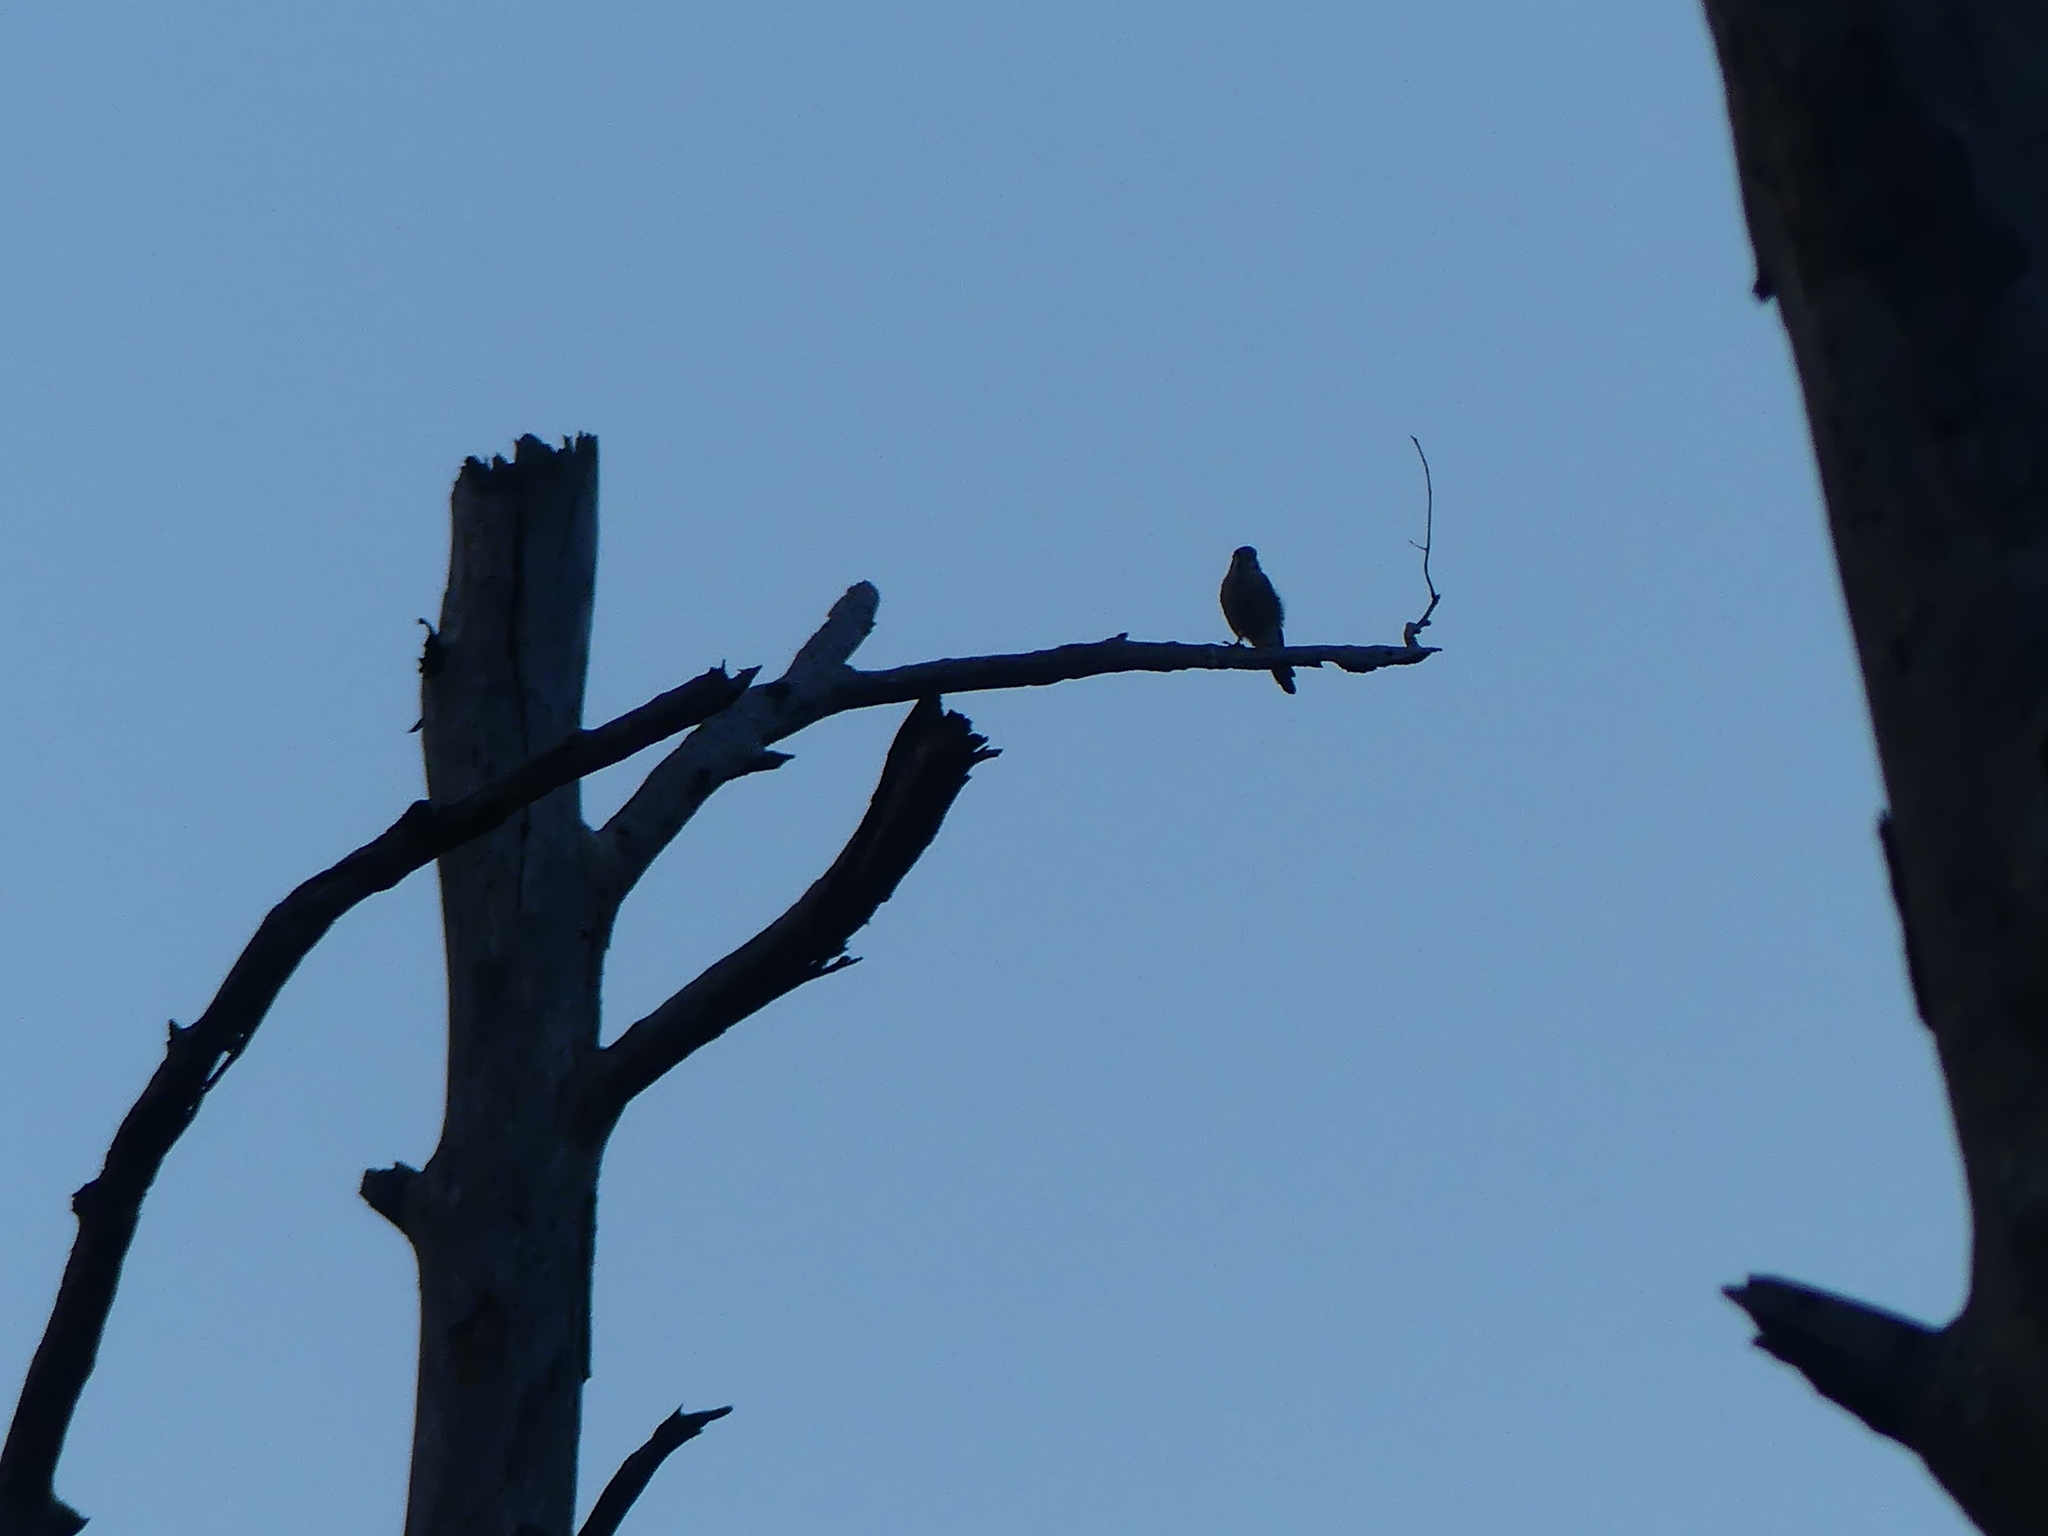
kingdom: Animalia
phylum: Chordata
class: Aves
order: Falconiformes
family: Falconidae
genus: Falco
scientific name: Falco sparverius
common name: American kestrel
